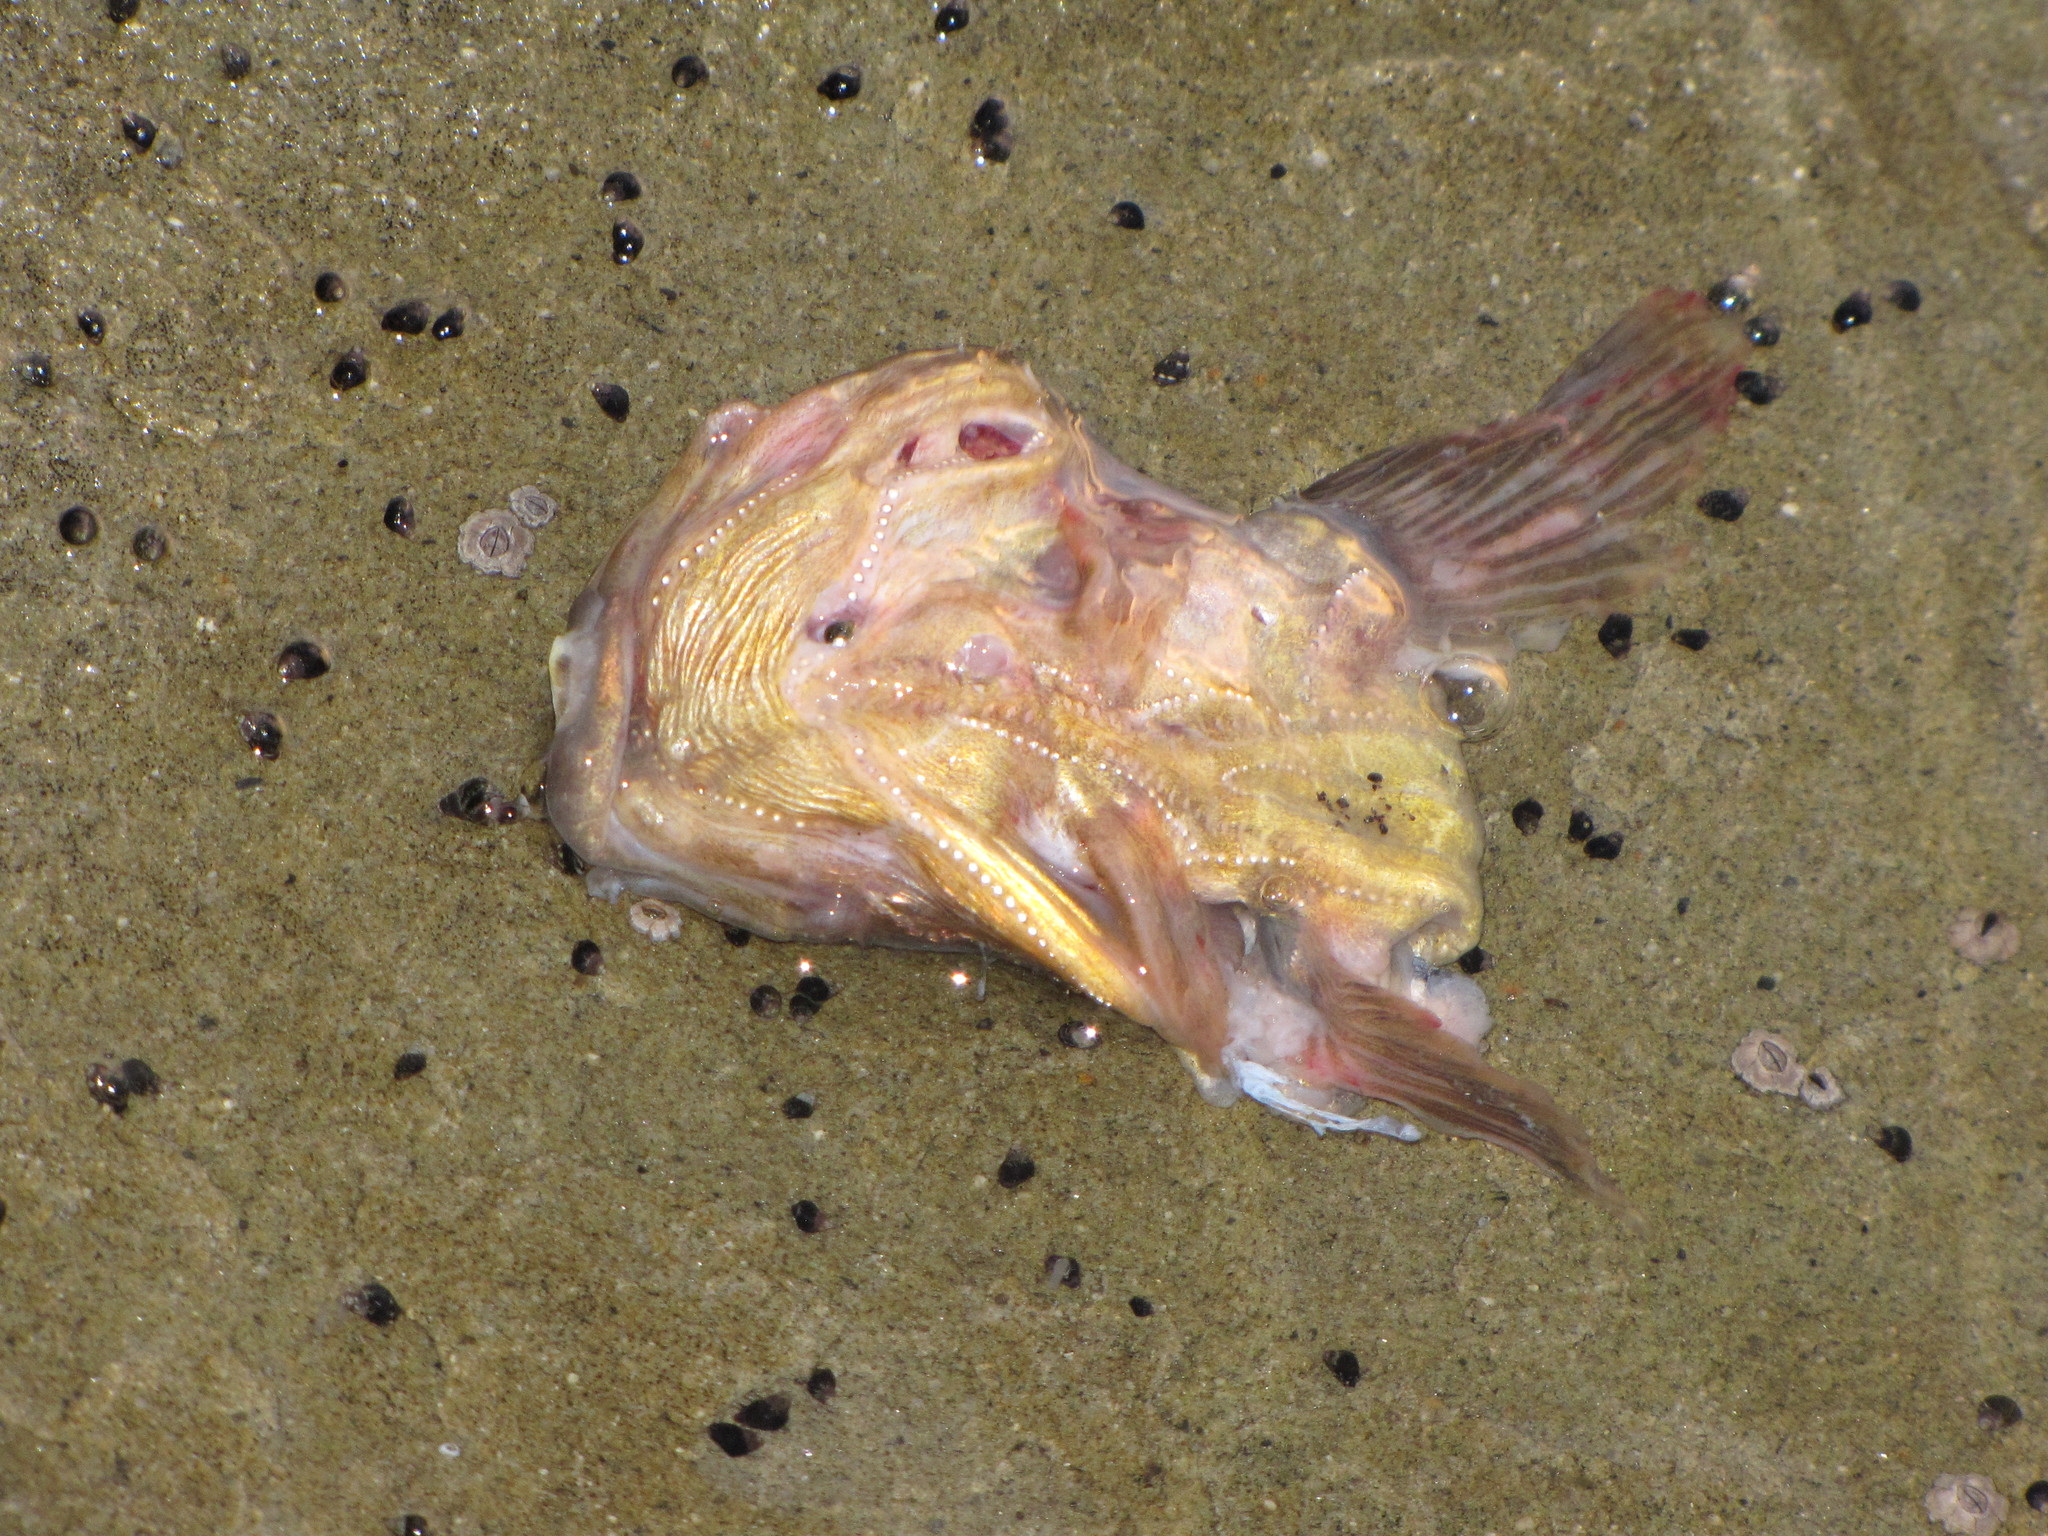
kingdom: Animalia
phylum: Chordata
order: Batrachoidiformes
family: Batrachoididae
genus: Porichthys
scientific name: Porichthys notatus
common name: Plainfin midshipman
